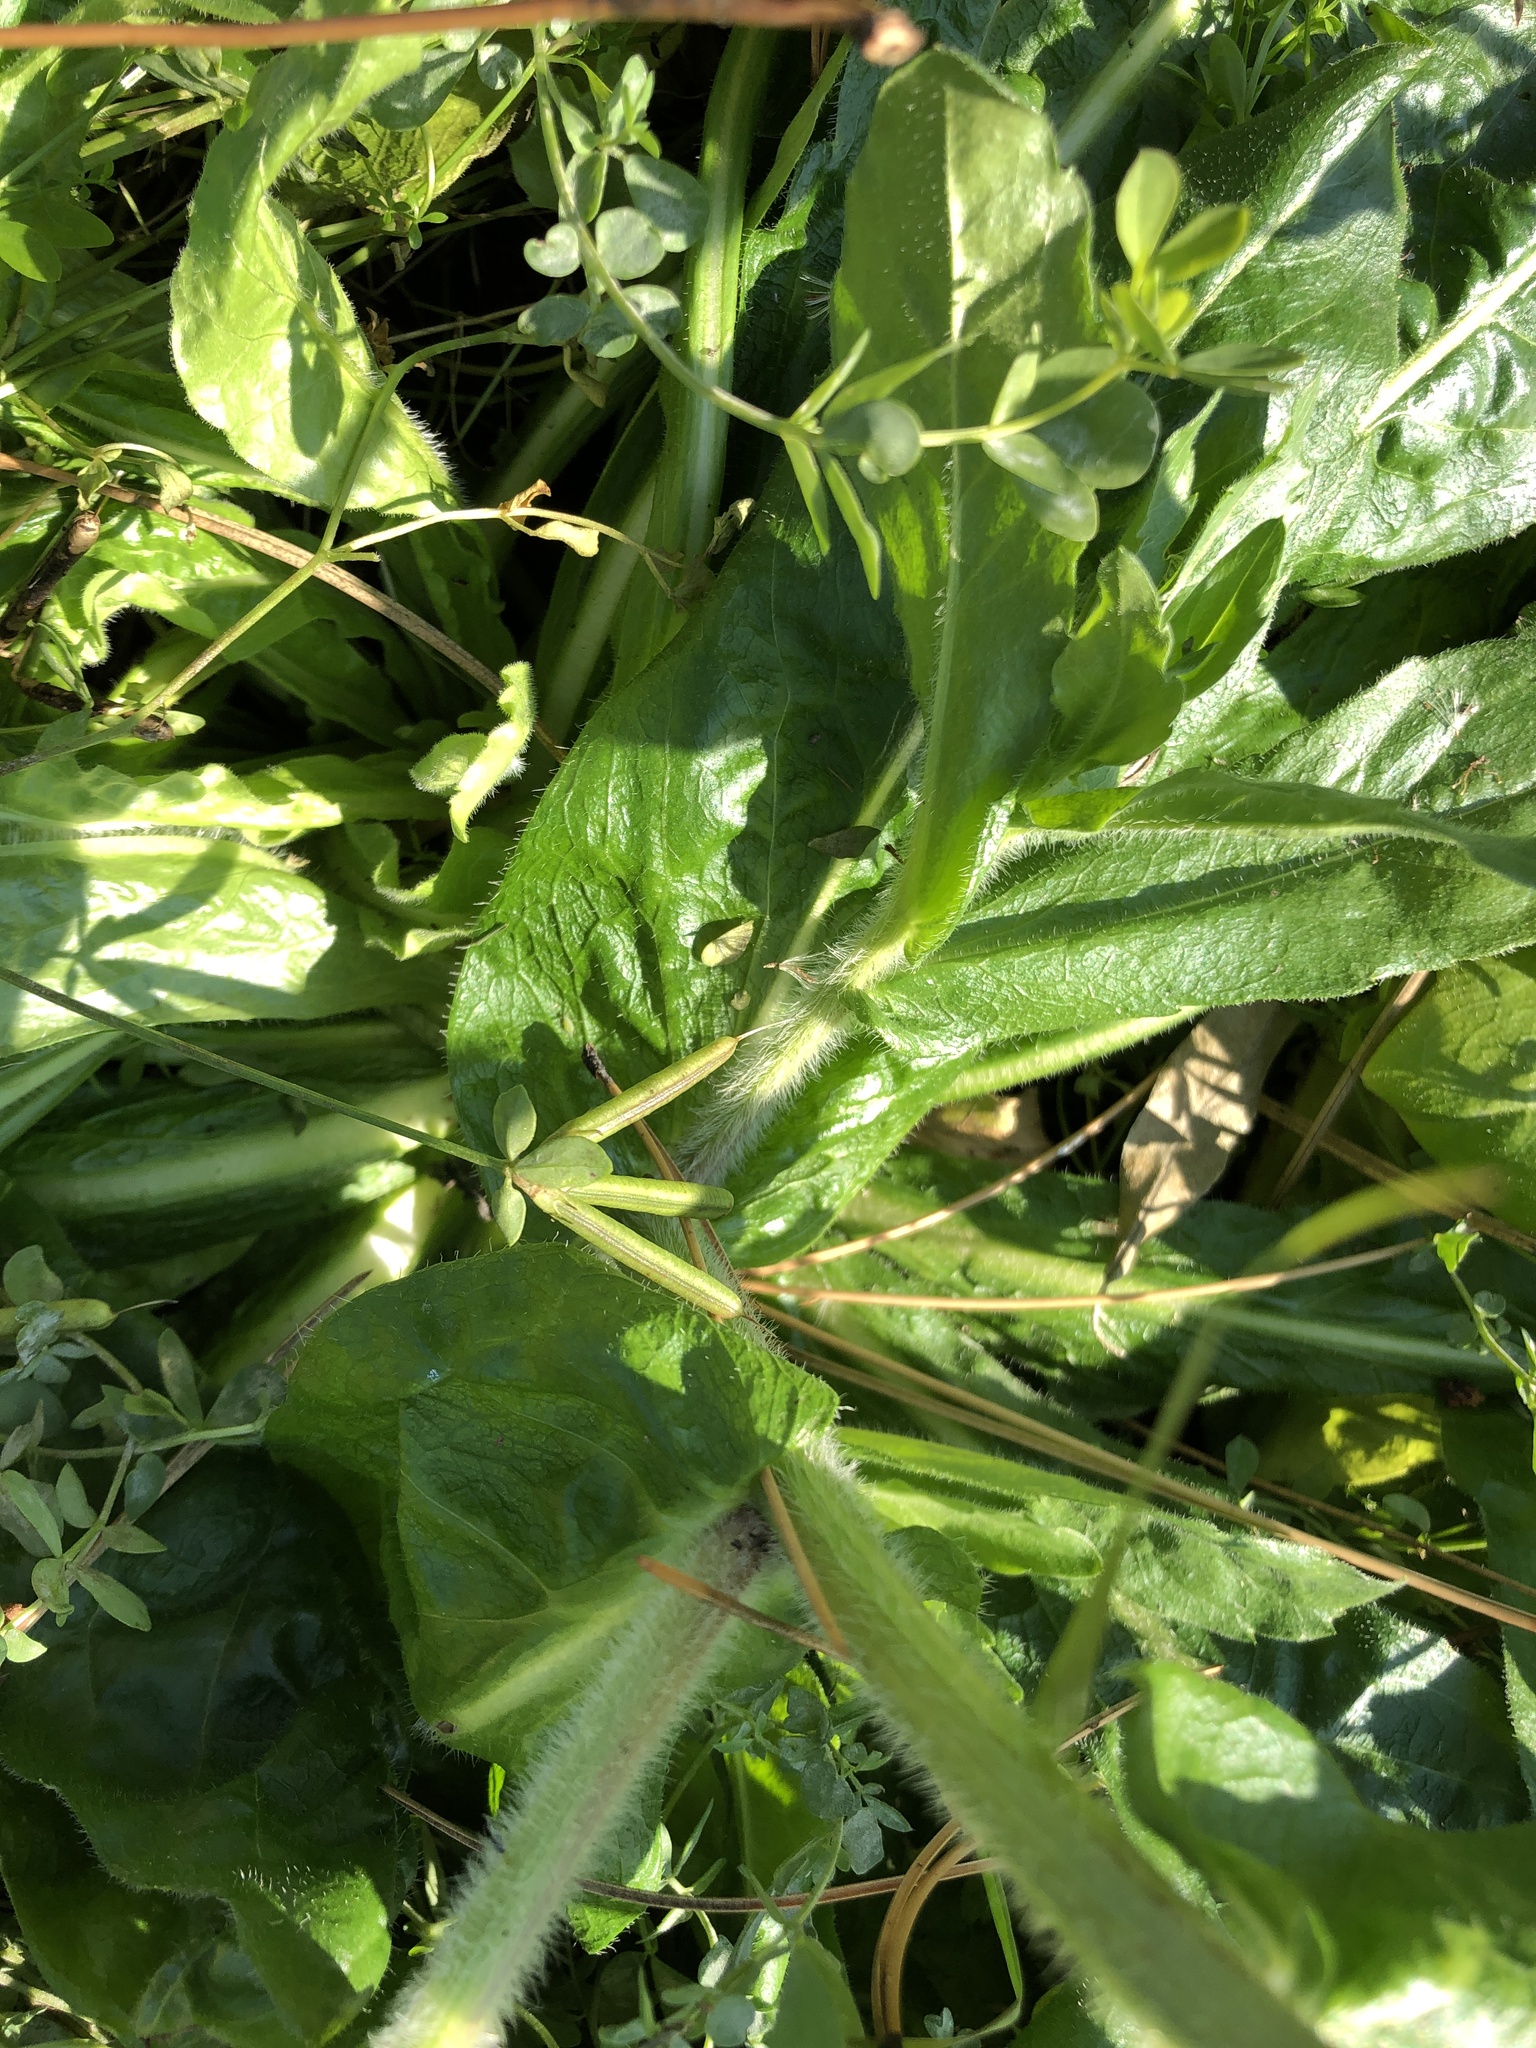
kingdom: Plantae
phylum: Tracheophyta
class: Magnoliopsida
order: Asterales
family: Asteraceae
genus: Erigeron
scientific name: Erigeron philadelphicus
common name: Robin's-plantain
